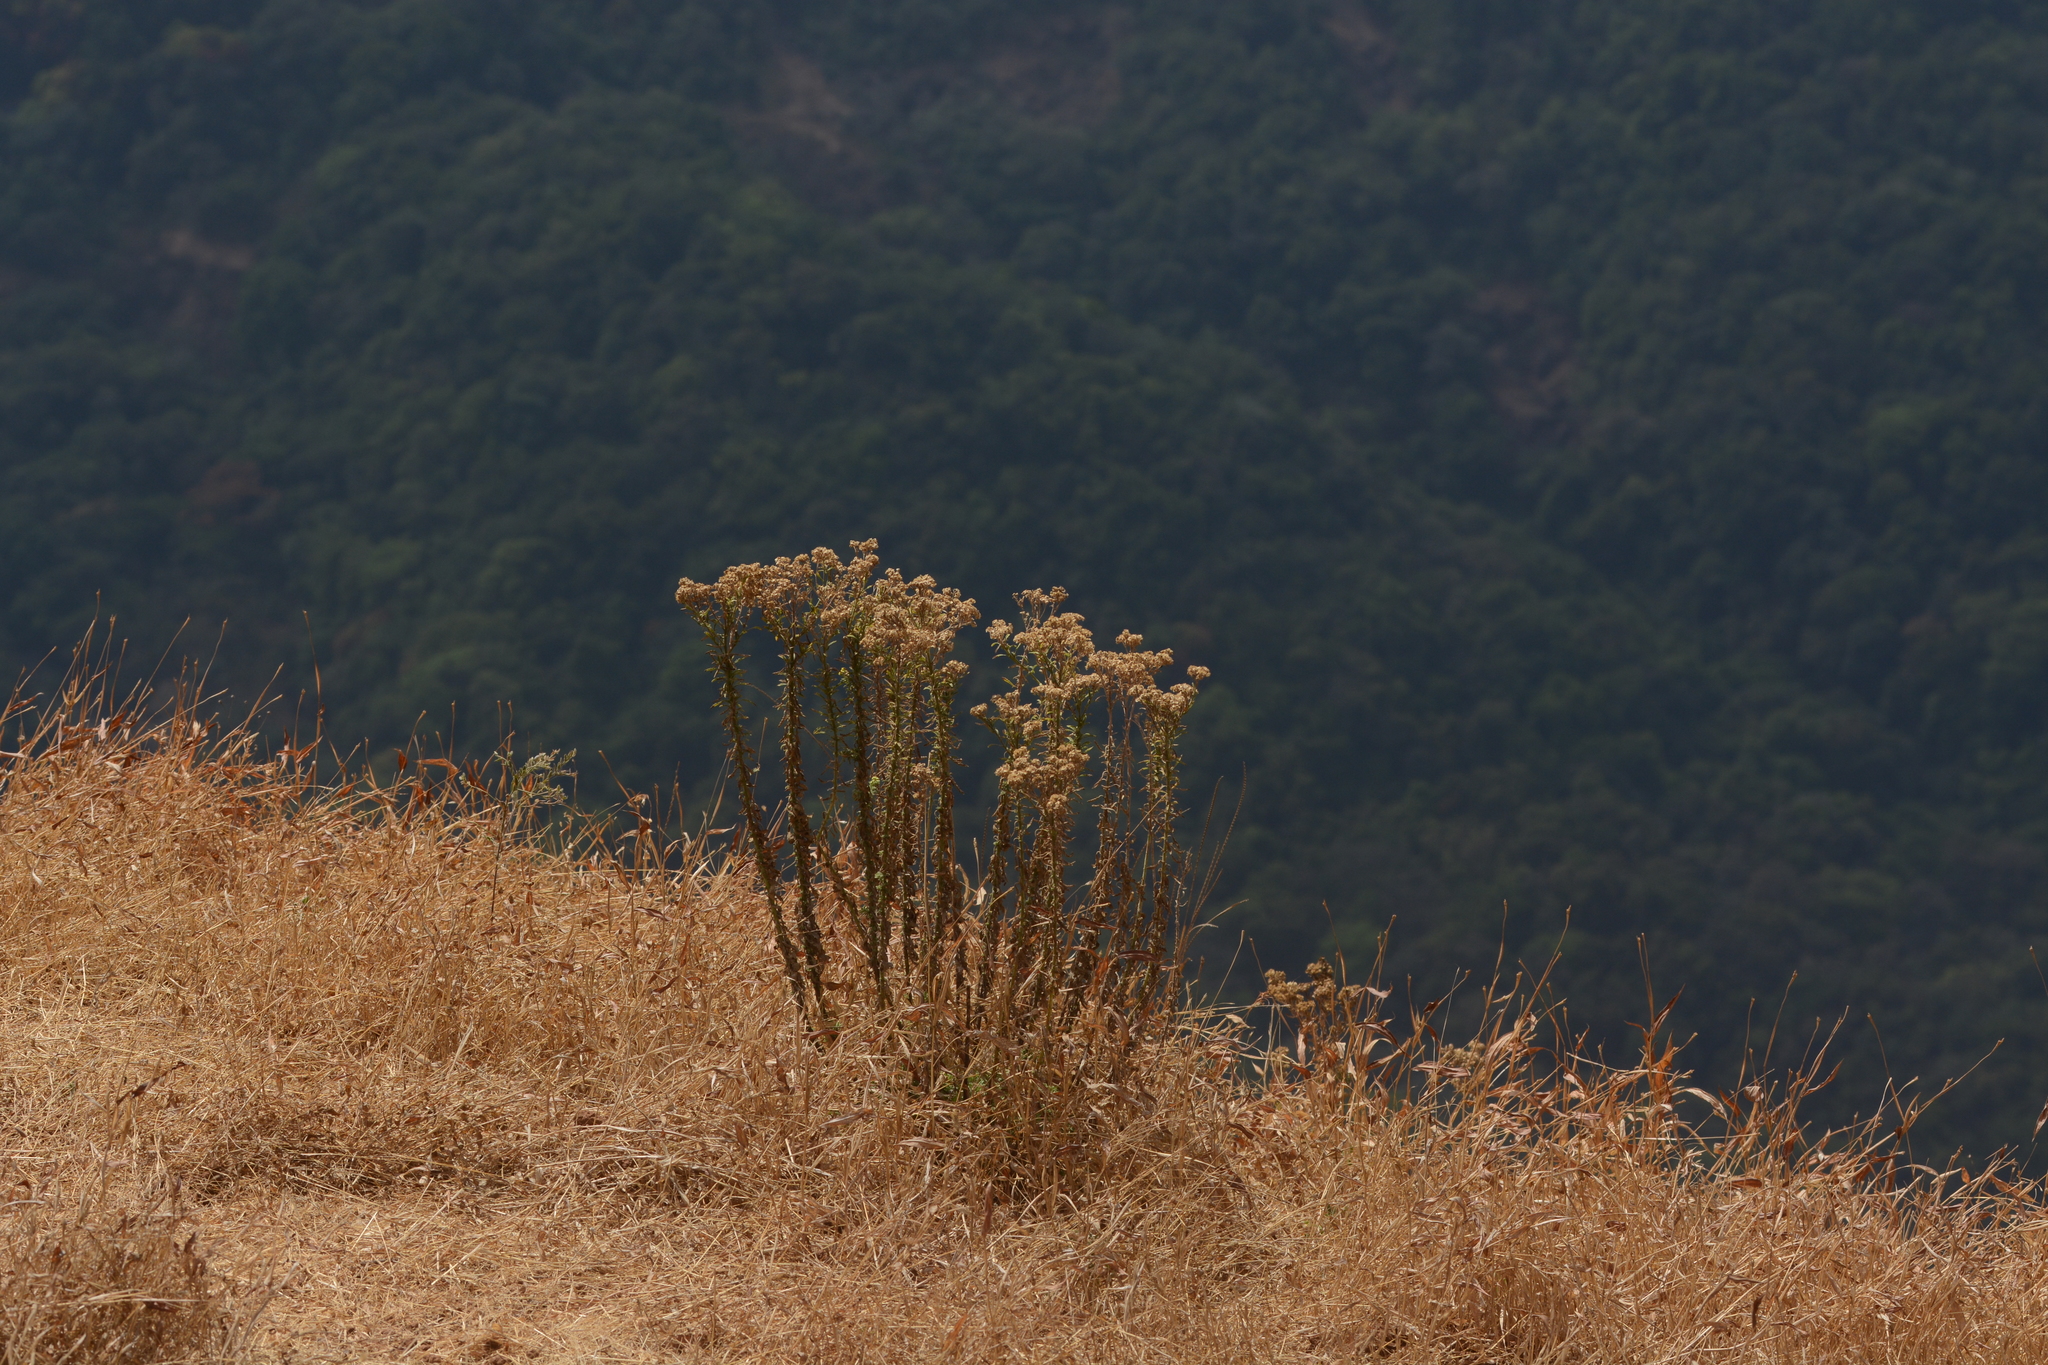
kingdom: Plantae
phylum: Tracheophyta
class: Magnoliopsida
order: Asterales
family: Asteraceae
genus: Nidorella
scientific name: Nidorella triloba
